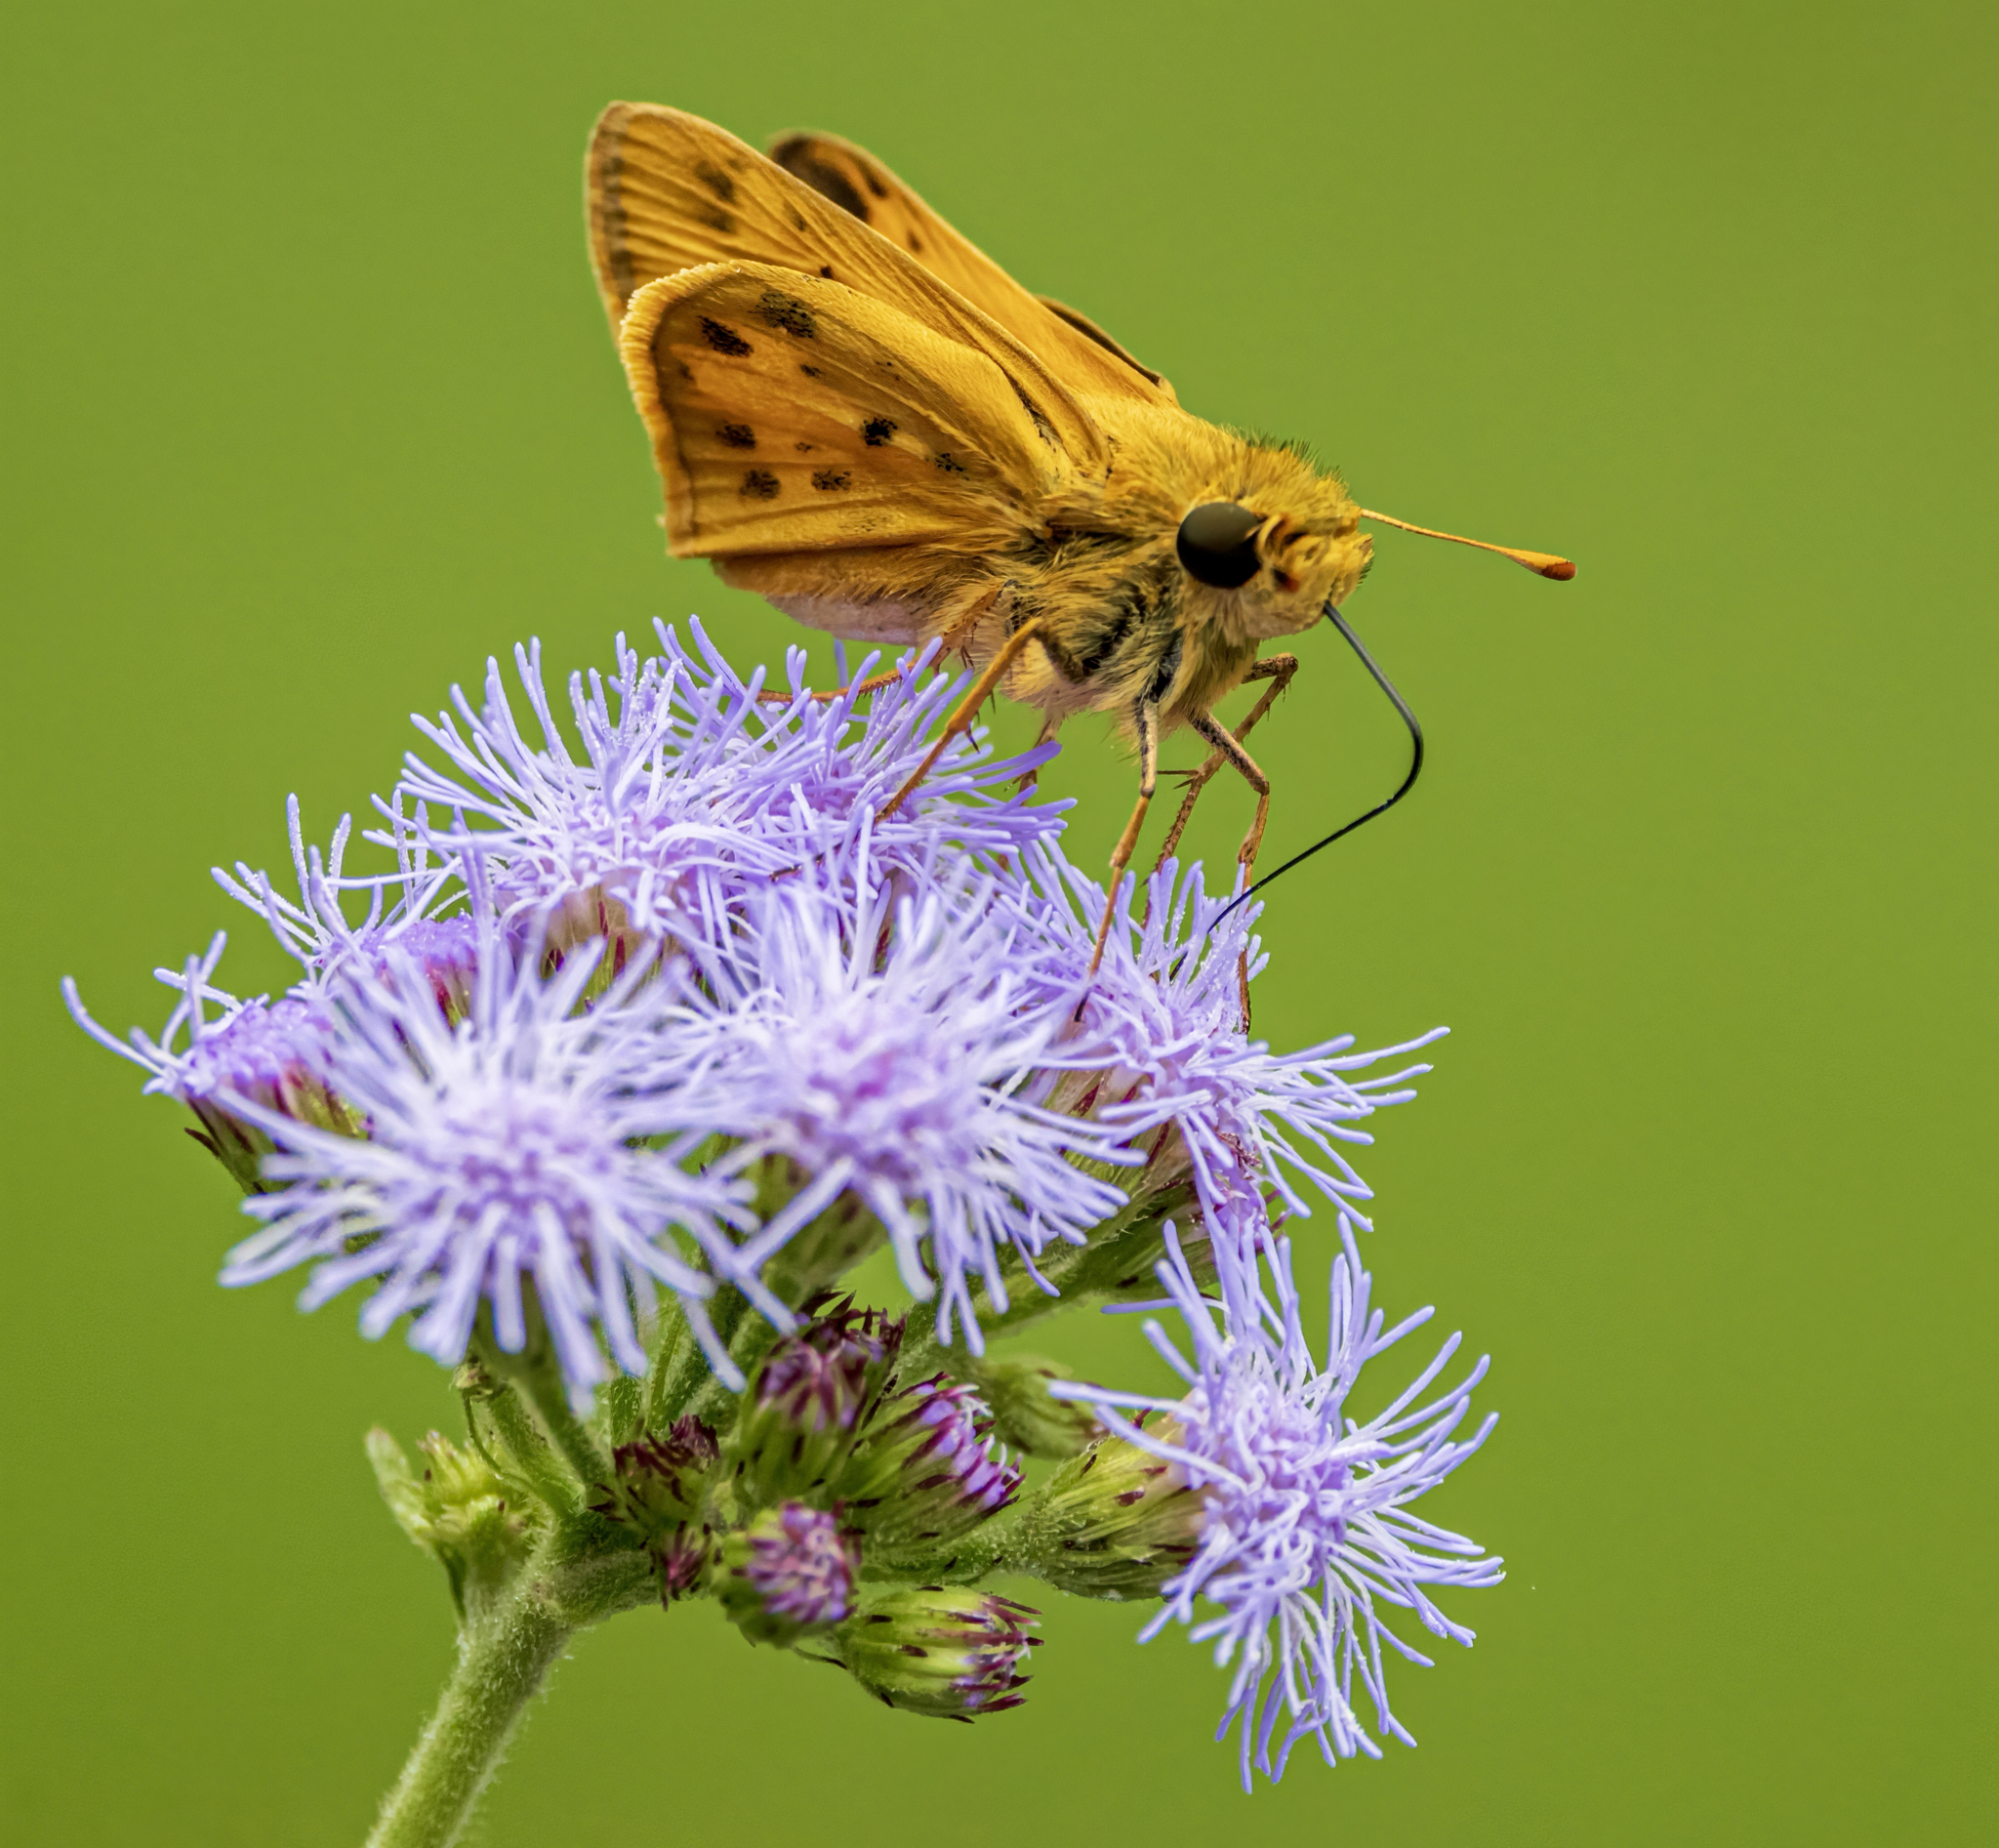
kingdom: Animalia
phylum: Arthropoda
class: Insecta
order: Lepidoptera
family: Hesperiidae
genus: Hylephila
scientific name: Hylephila phyleus
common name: Fiery skipper
